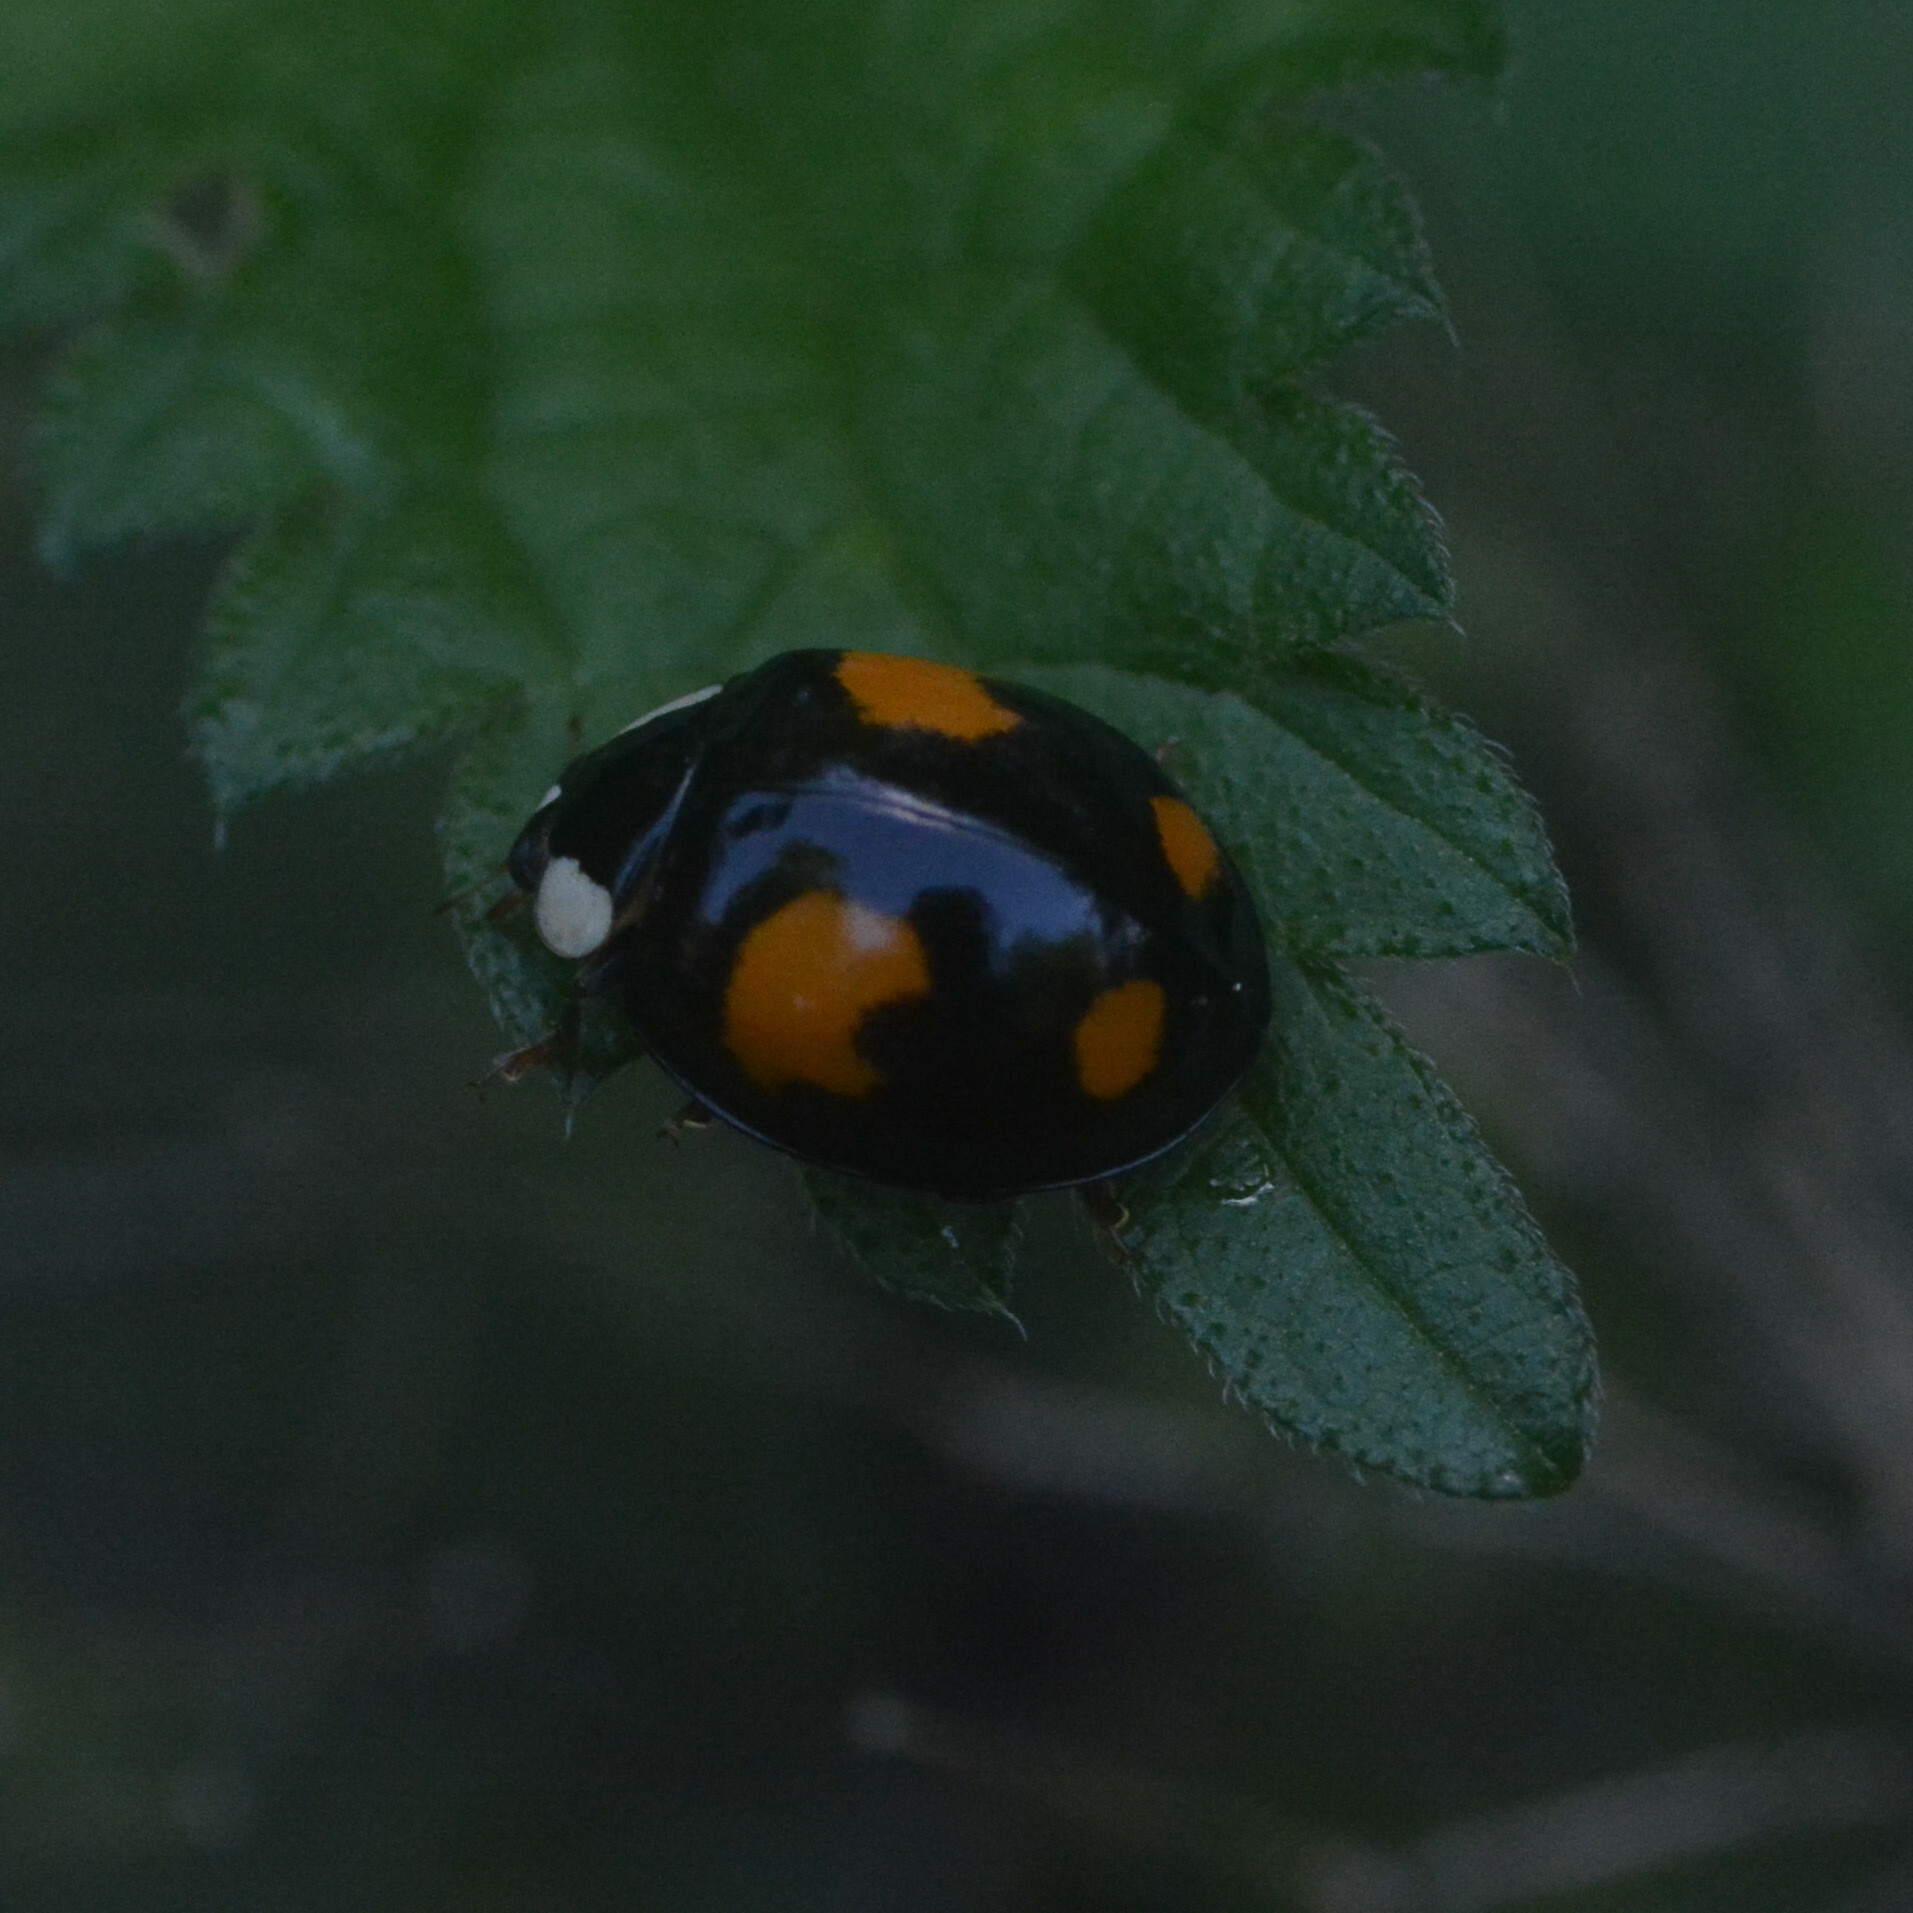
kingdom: Animalia
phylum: Arthropoda
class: Insecta
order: Coleoptera
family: Coccinellidae
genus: Harmonia
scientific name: Harmonia axyridis
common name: Harlequin ladybird
